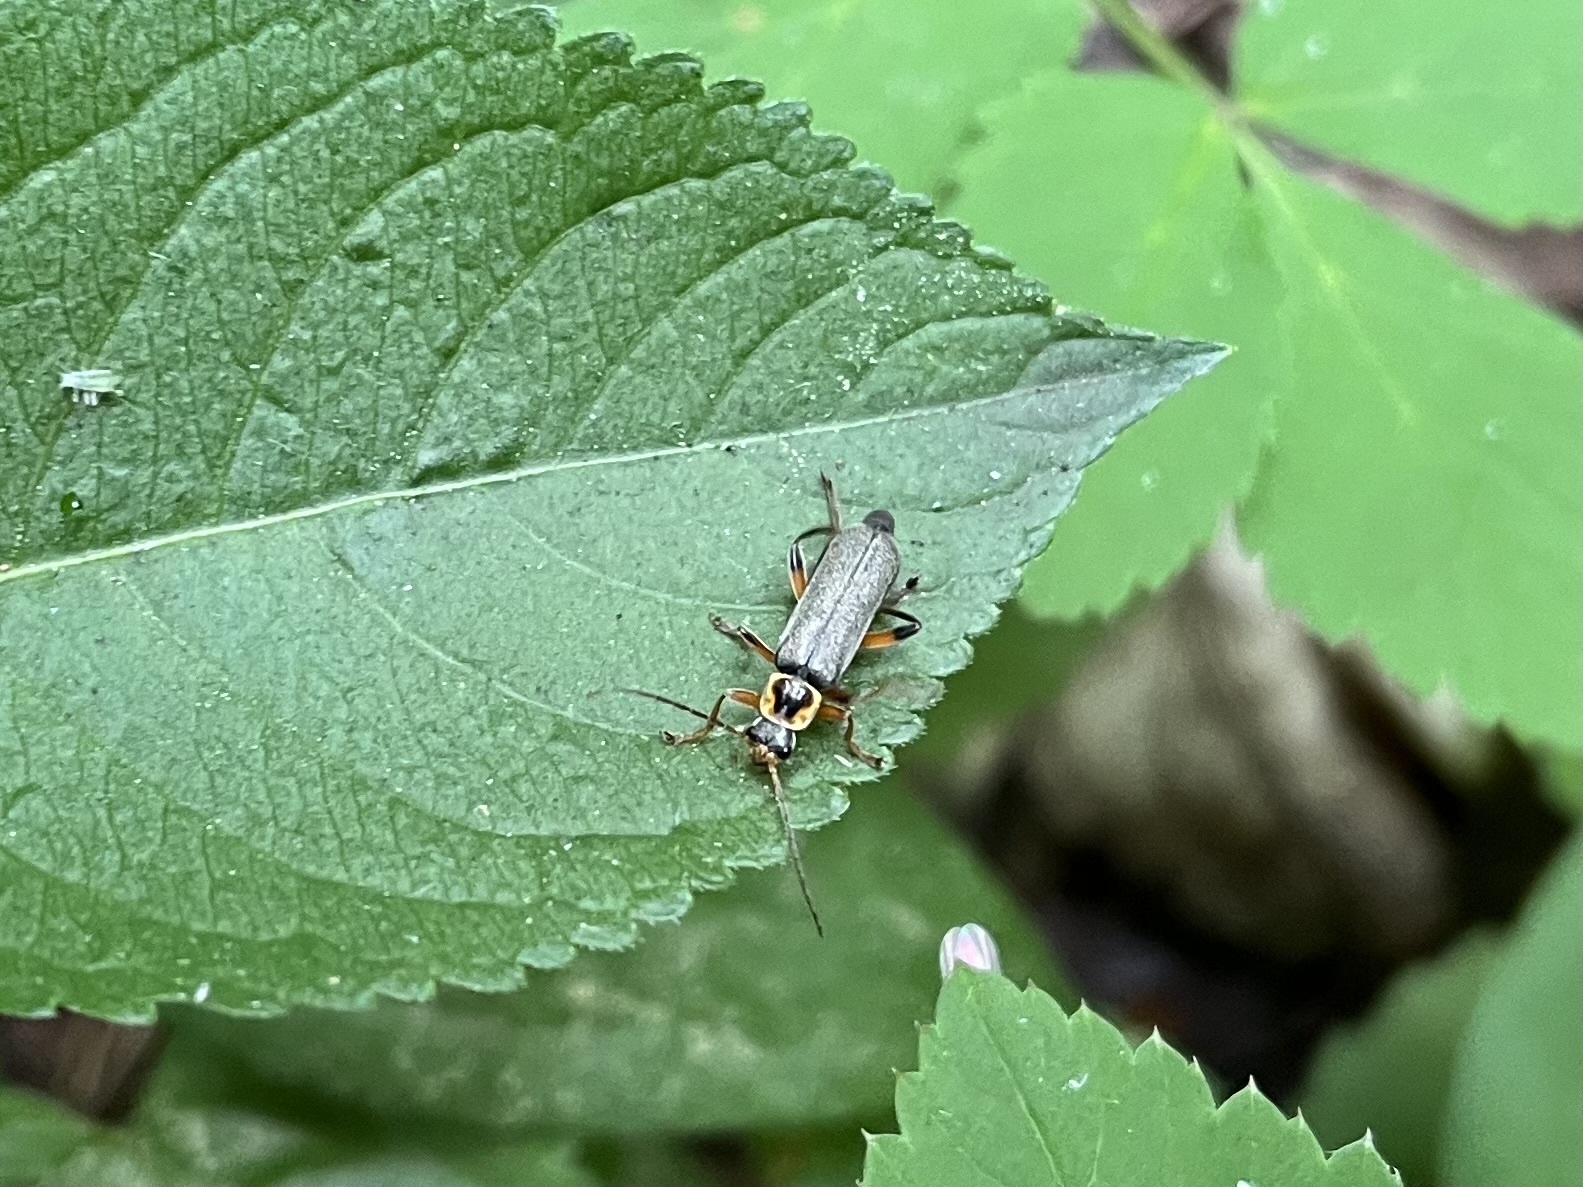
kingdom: Animalia
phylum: Arthropoda
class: Insecta
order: Coleoptera
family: Cantharidae
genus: Cantharis
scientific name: Cantharis nigricans
